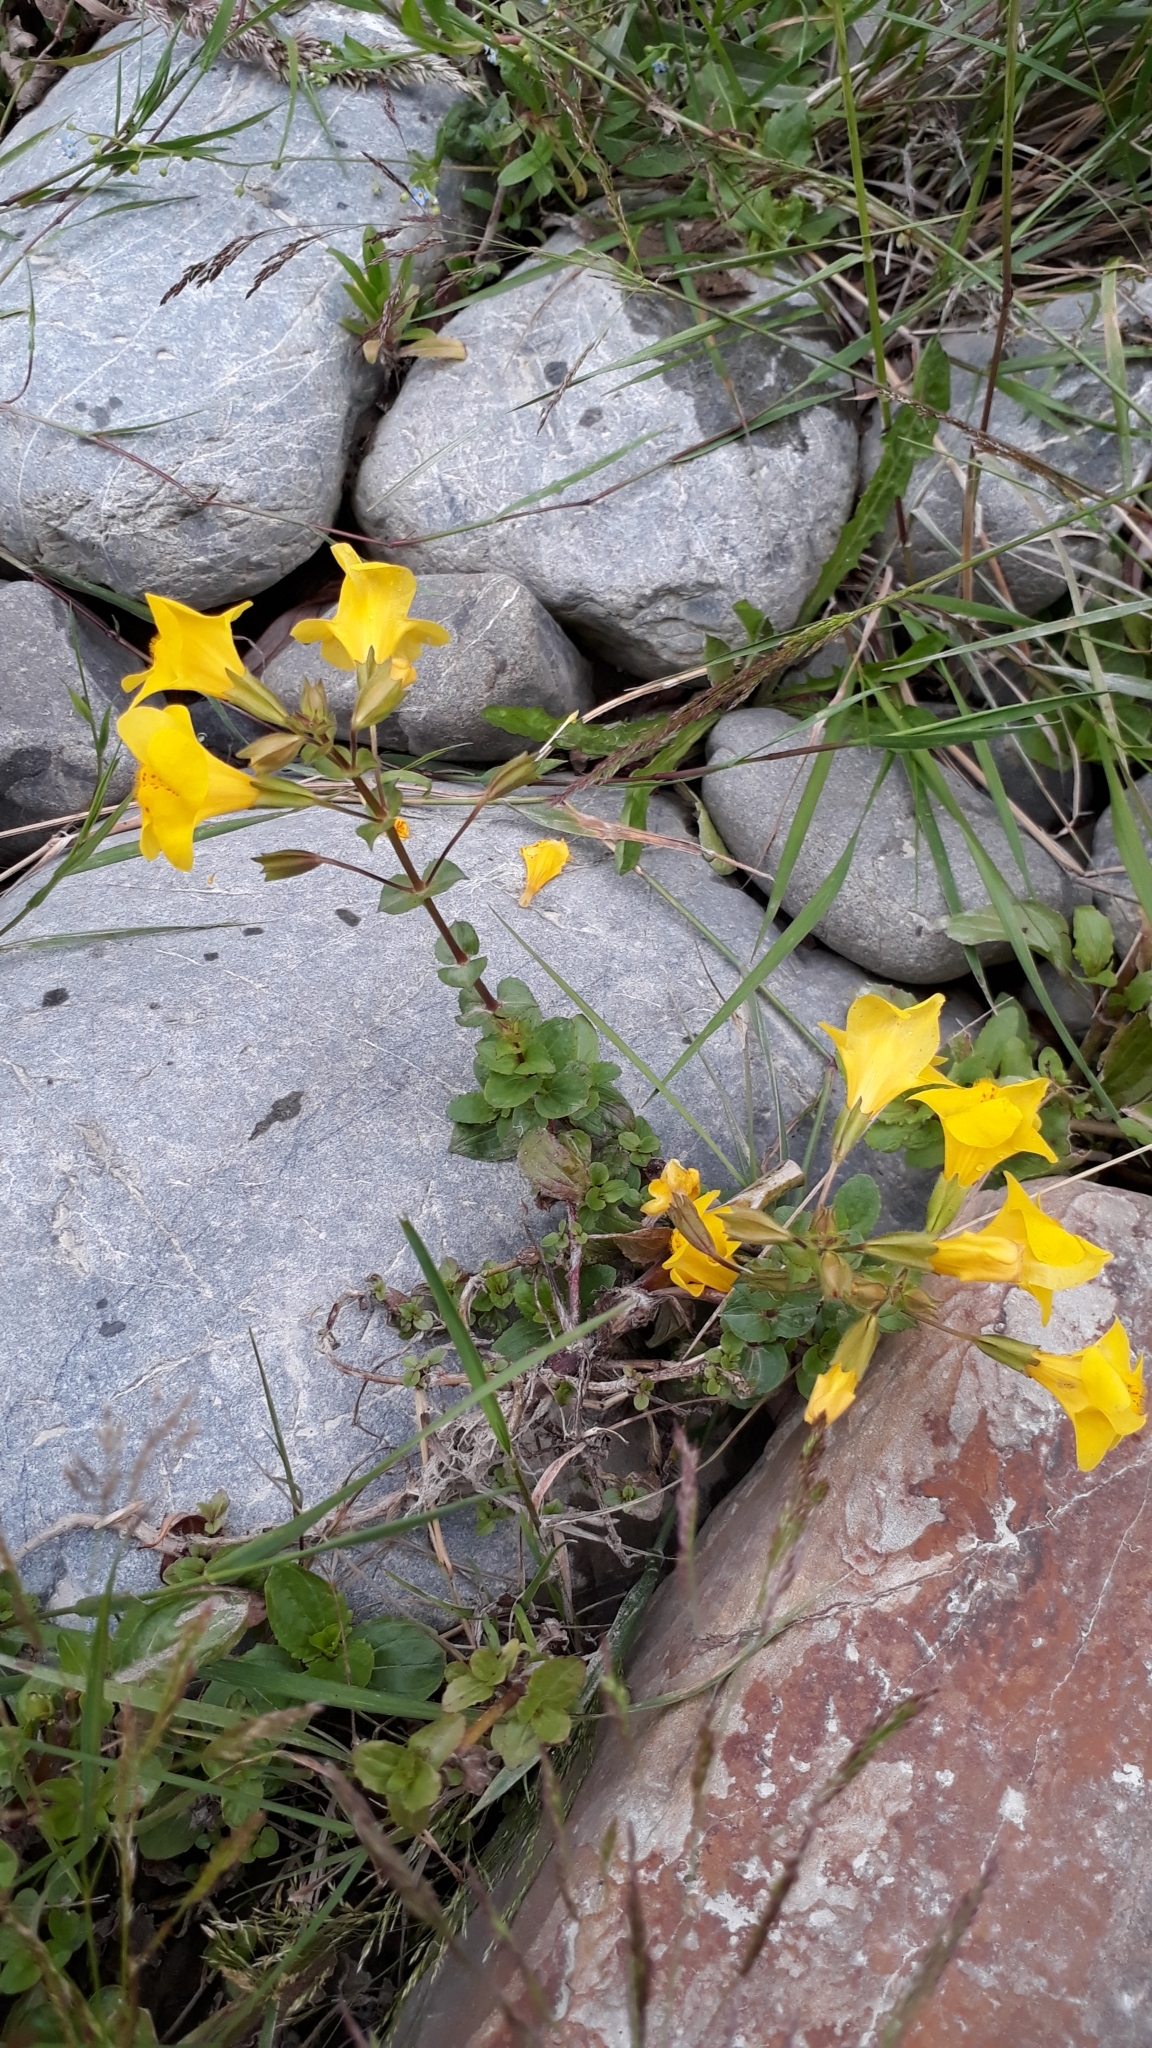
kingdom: Plantae
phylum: Tracheophyta
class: Magnoliopsida
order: Lamiales
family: Phrymaceae
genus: Erythranthe
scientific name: Erythranthe guttata
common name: Monkeyflower
